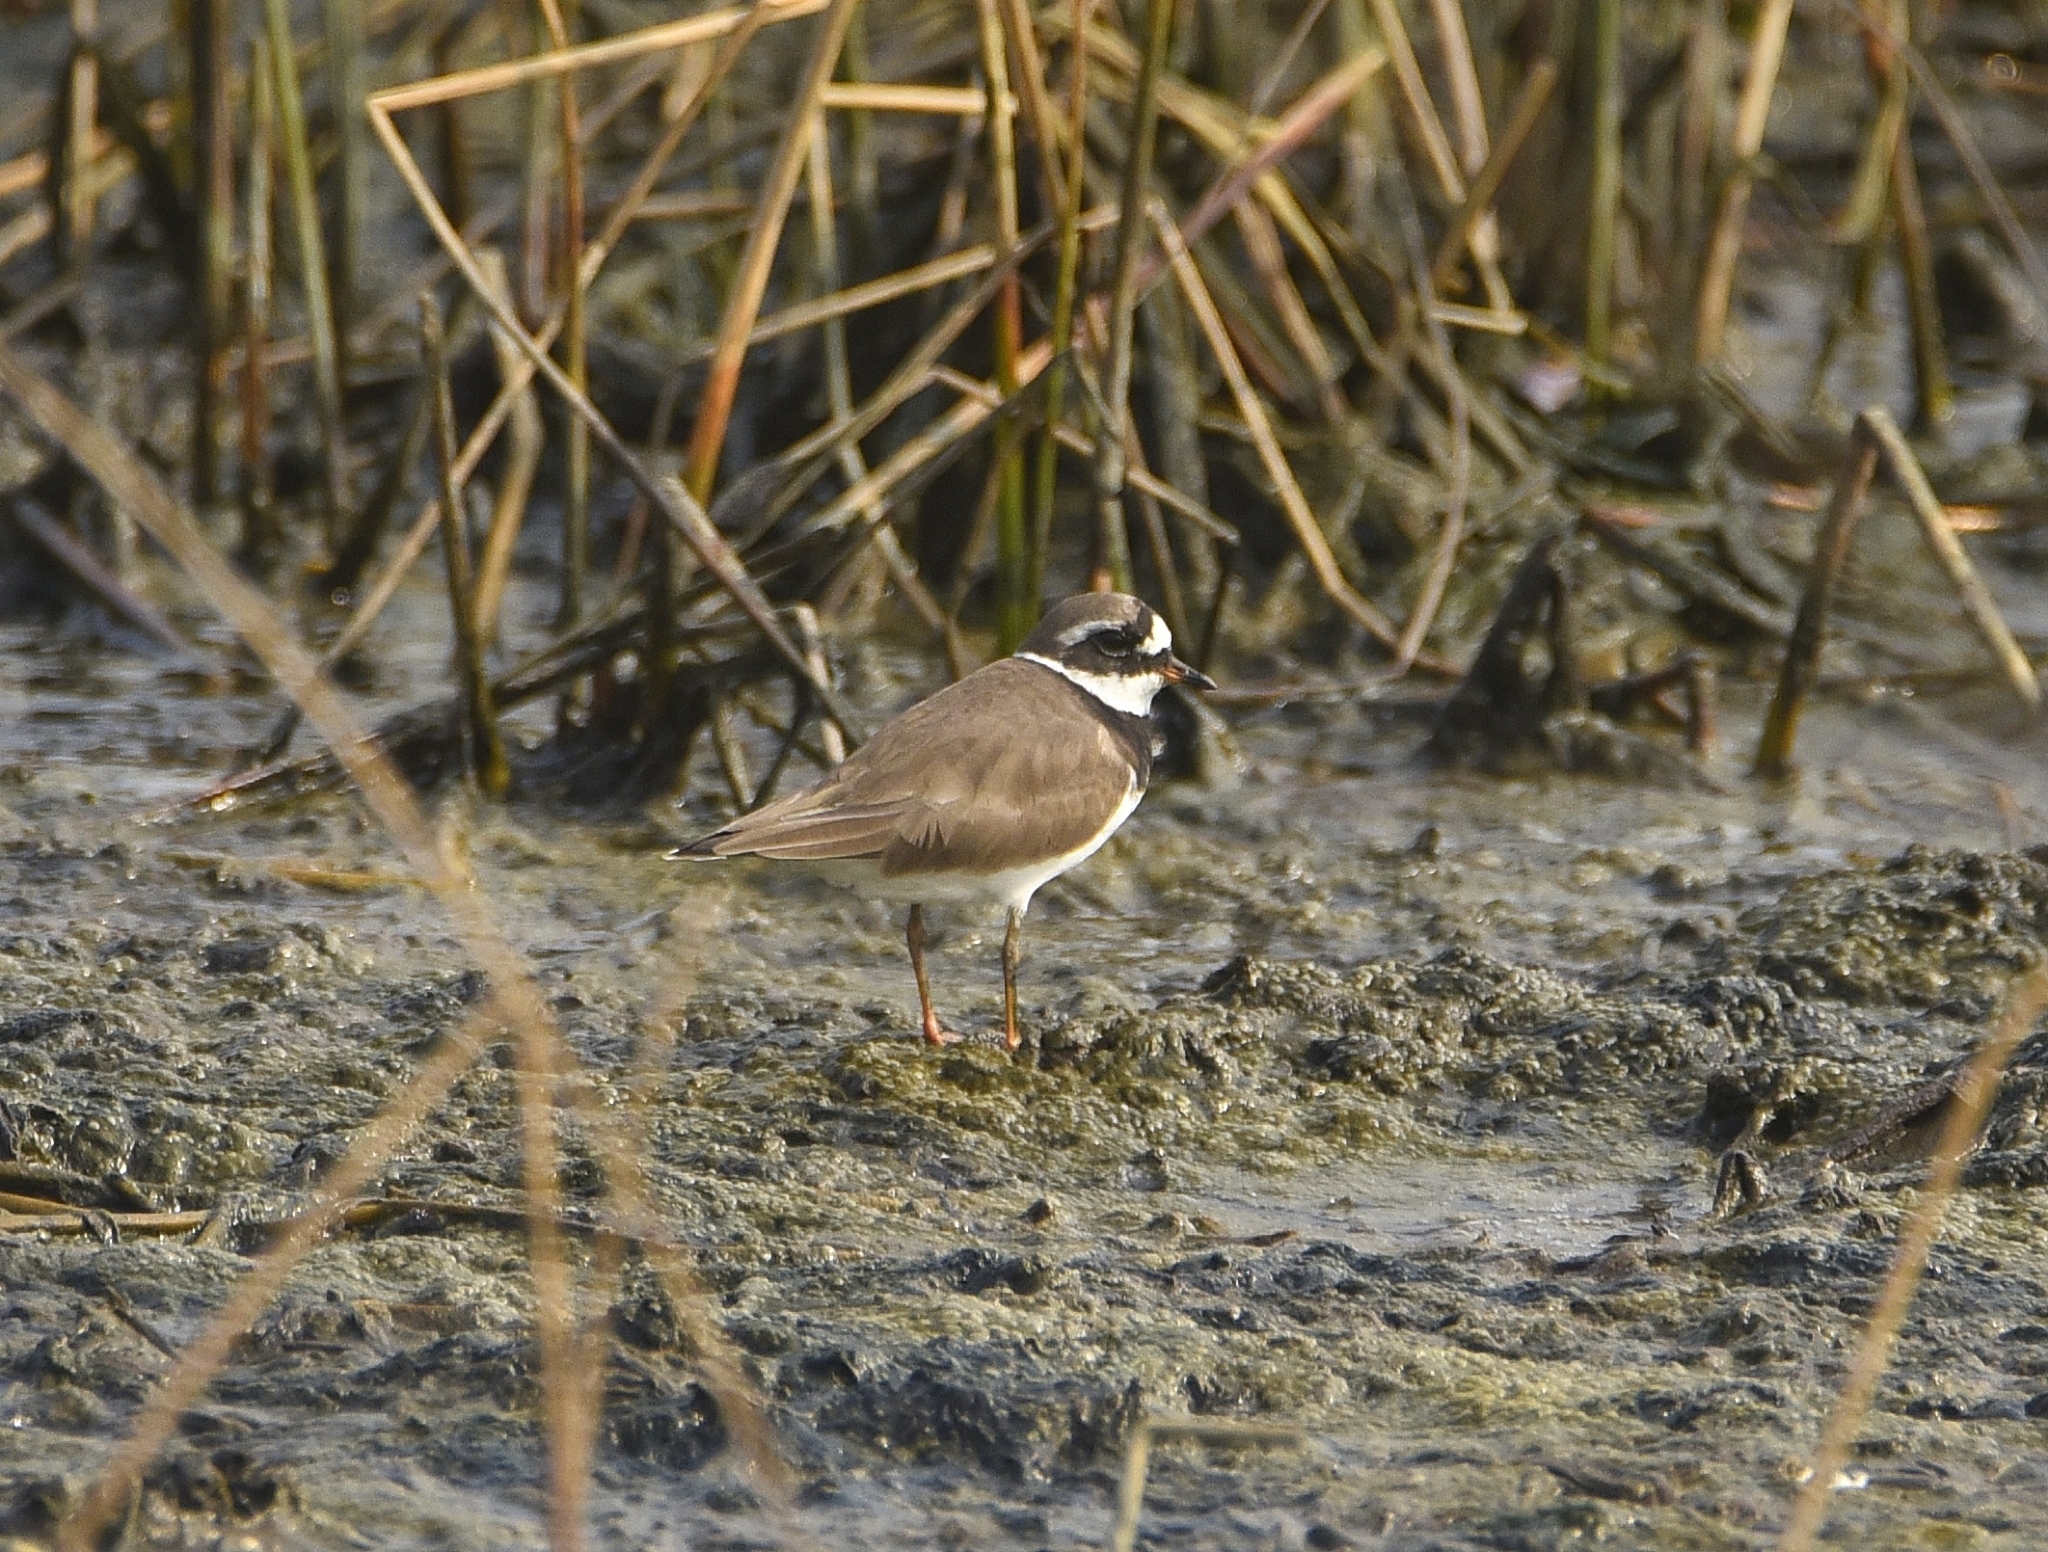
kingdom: Animalia
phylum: Chordata
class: Aves
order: Charadriiformes
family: Charadriidae
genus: Charadrius
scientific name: Charadrius hiaticula
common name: Common ringed plover
